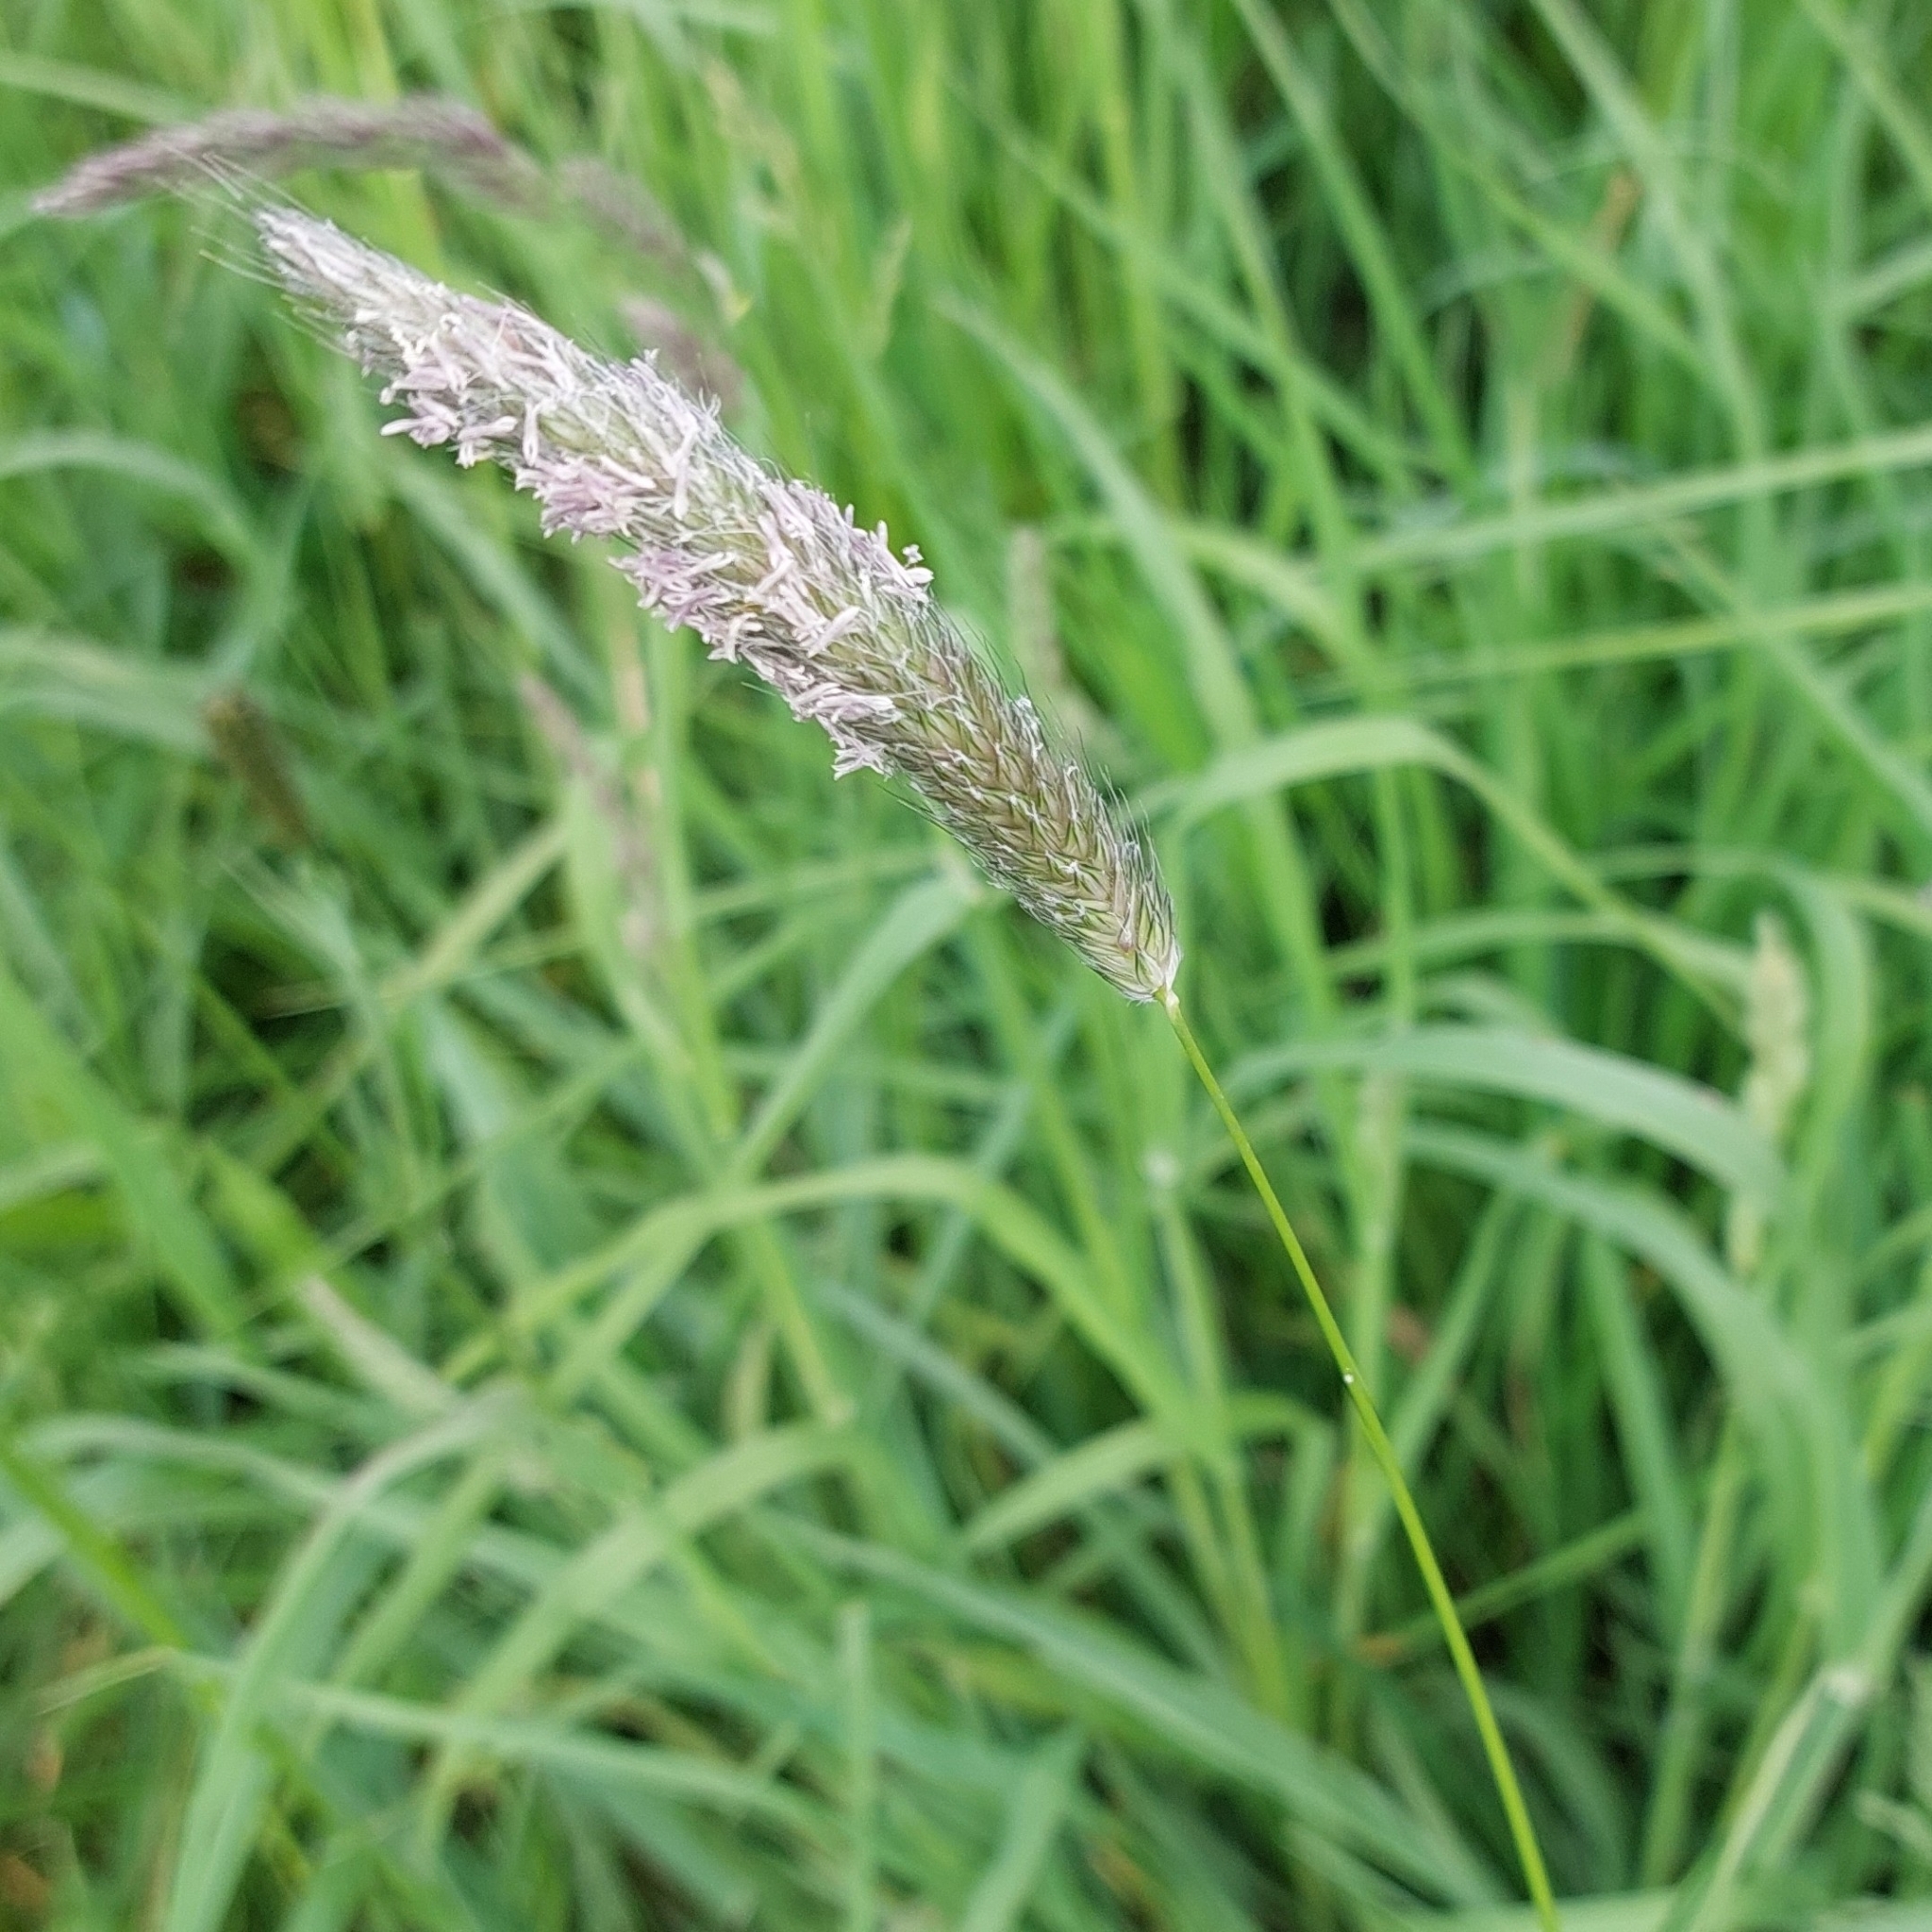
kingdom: Plantae
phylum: Tracheophyta
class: Liliopsida
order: Poales
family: Poaceae
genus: Alopecurus
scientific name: Alopecurus pratensis
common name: Meadow foxtail
